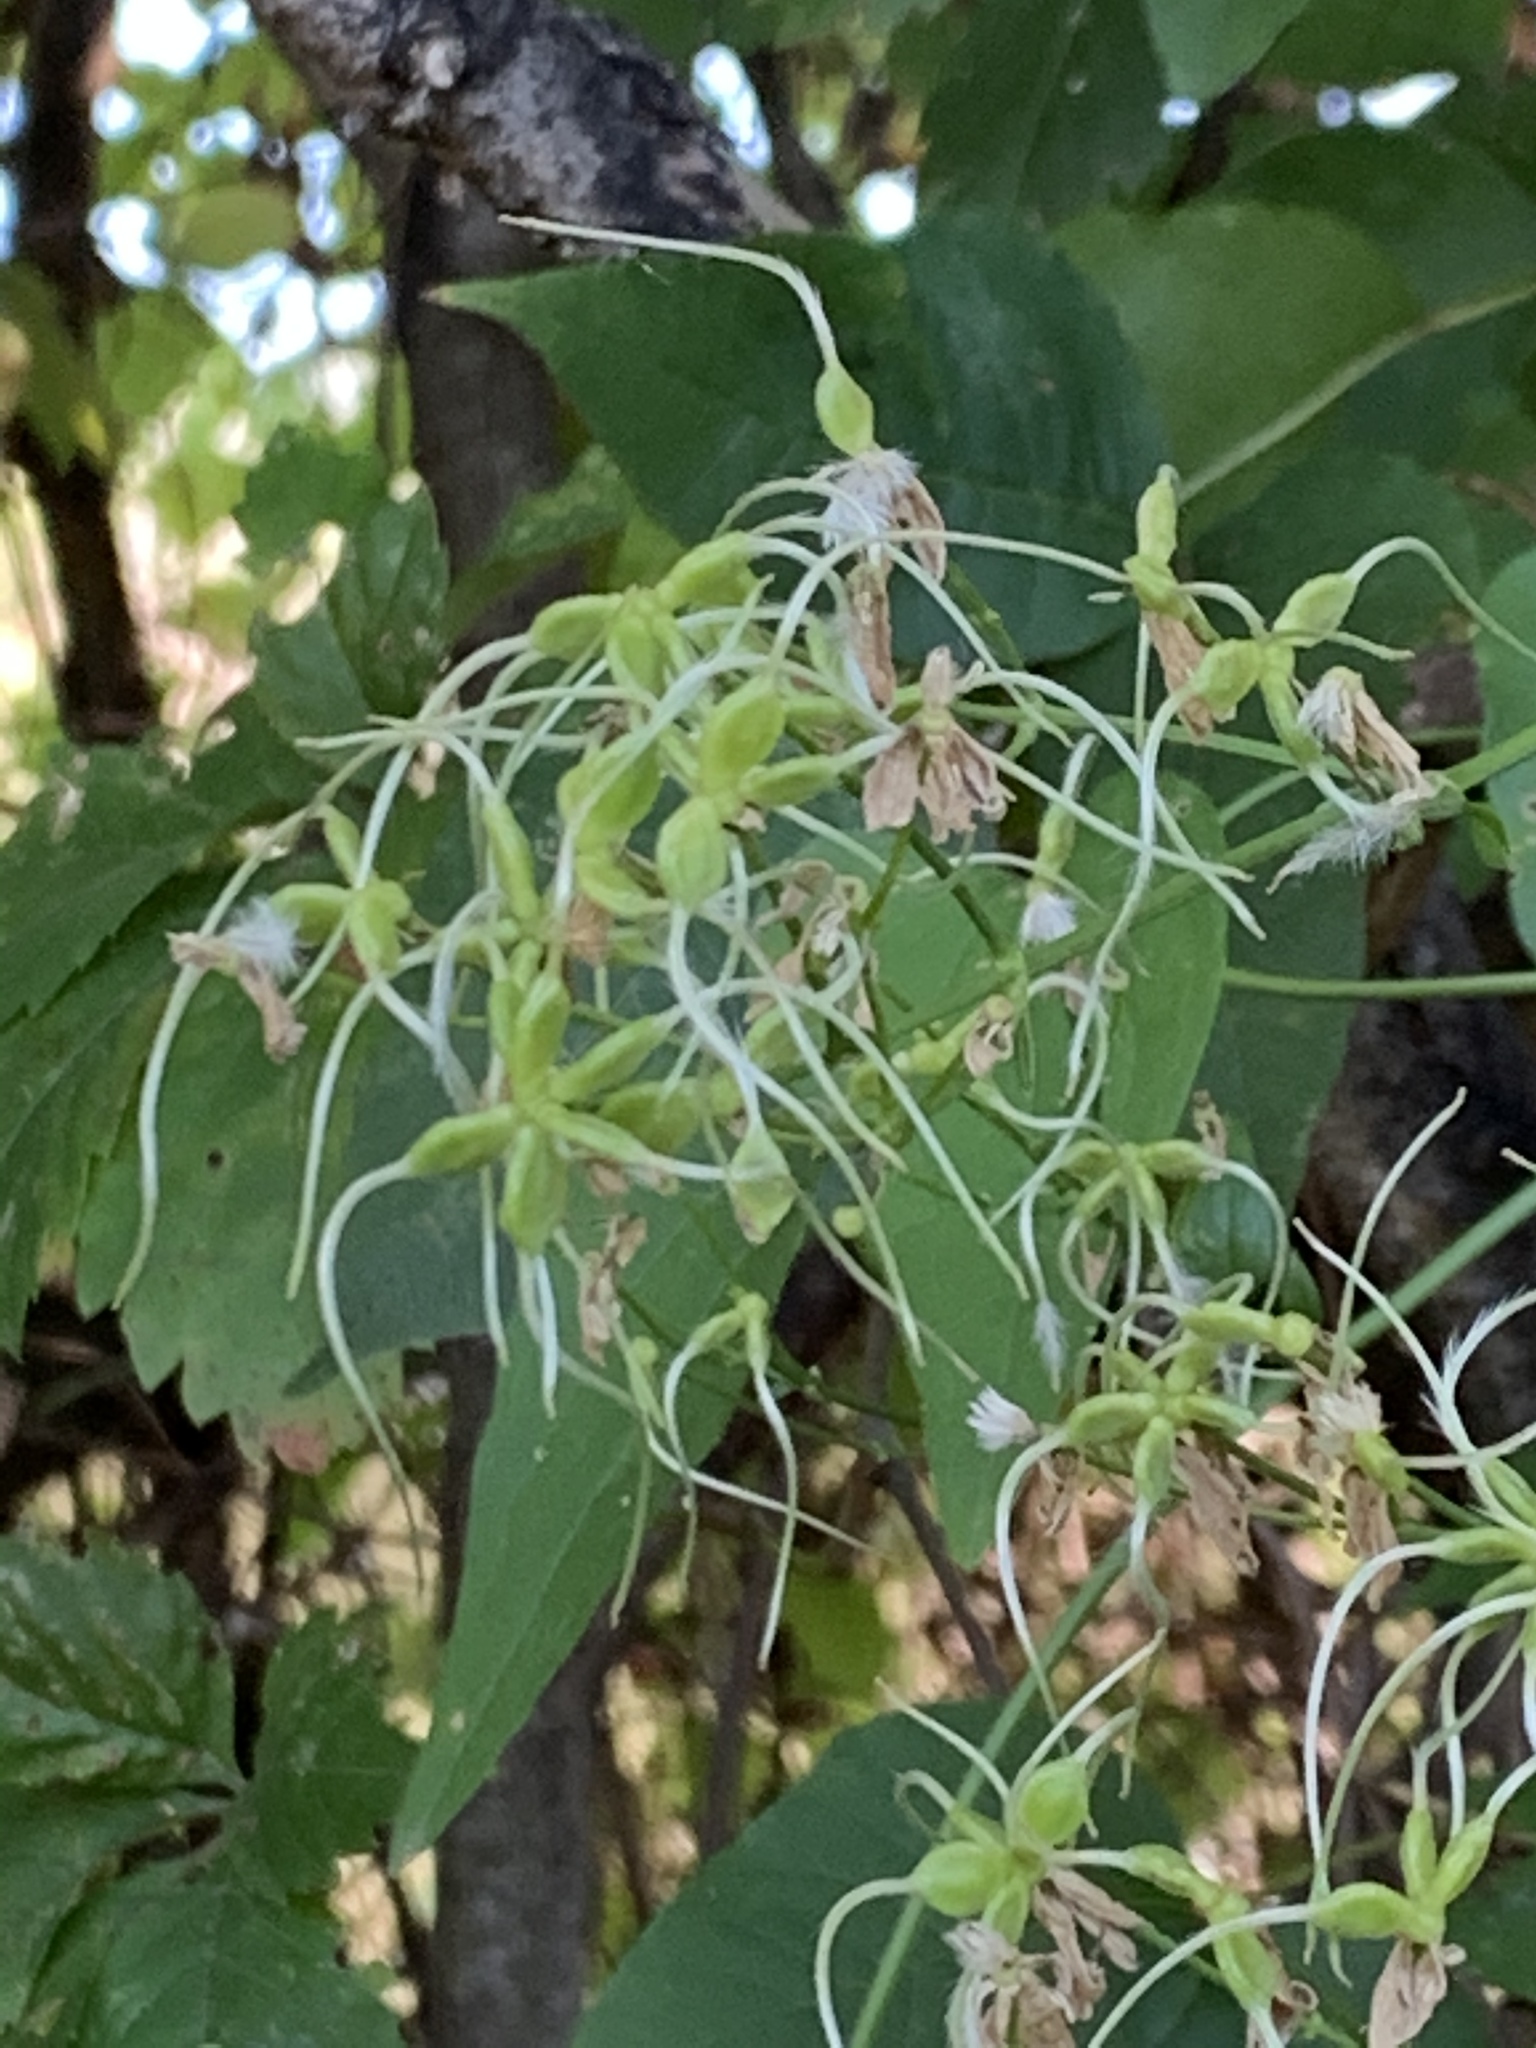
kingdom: Plantae
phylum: Tracheophyta
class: Magnoliopsida
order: Ranunculales
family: Ranunculaceae
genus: Clematis
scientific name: Clematis terniflora
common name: Sweet autumn clematis
